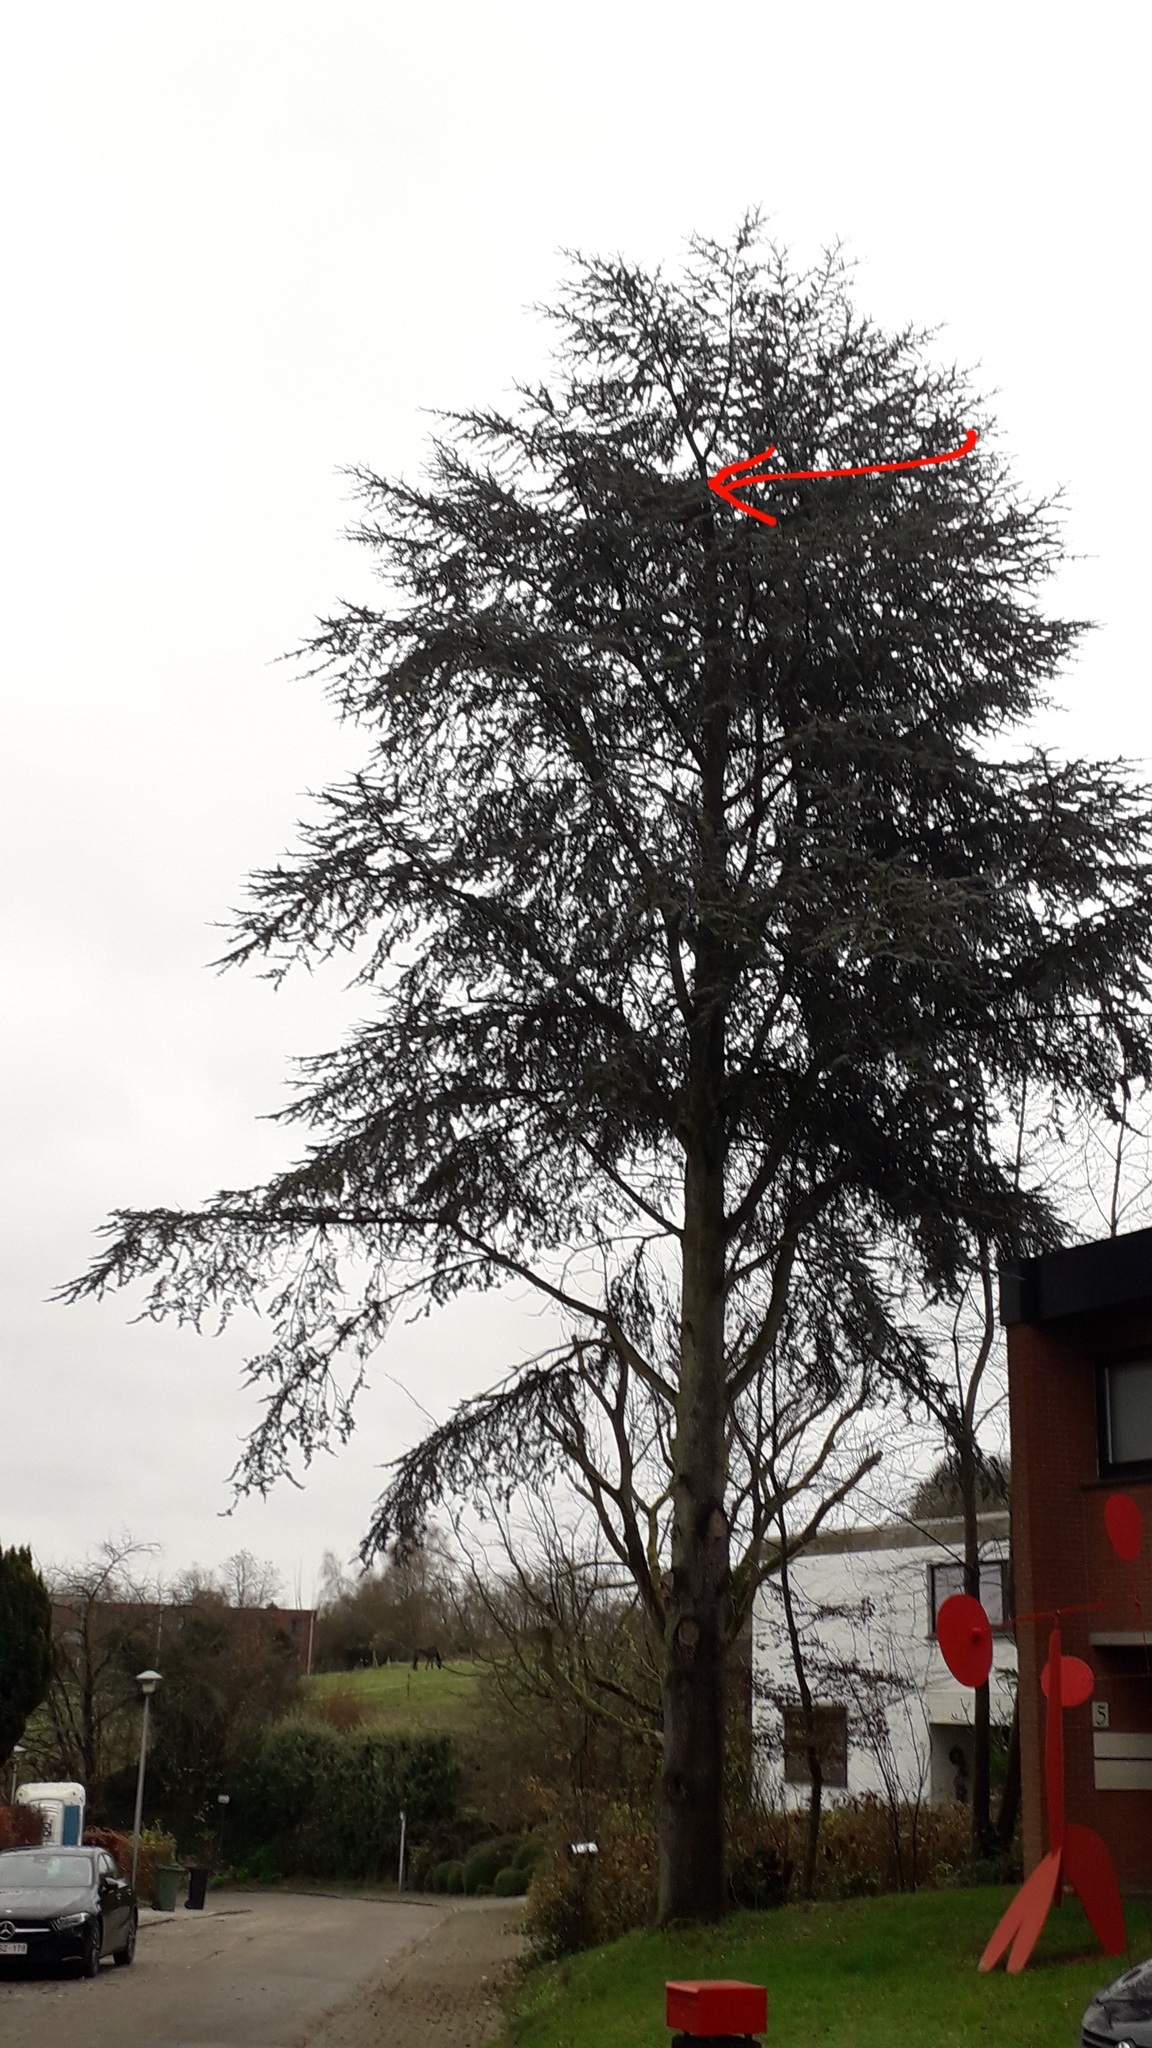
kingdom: Animalia
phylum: Arthropoda
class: Insecta
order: Hymenoptera
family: Vespidae
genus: Vespa
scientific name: Vespa velutina
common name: Asian hornet
